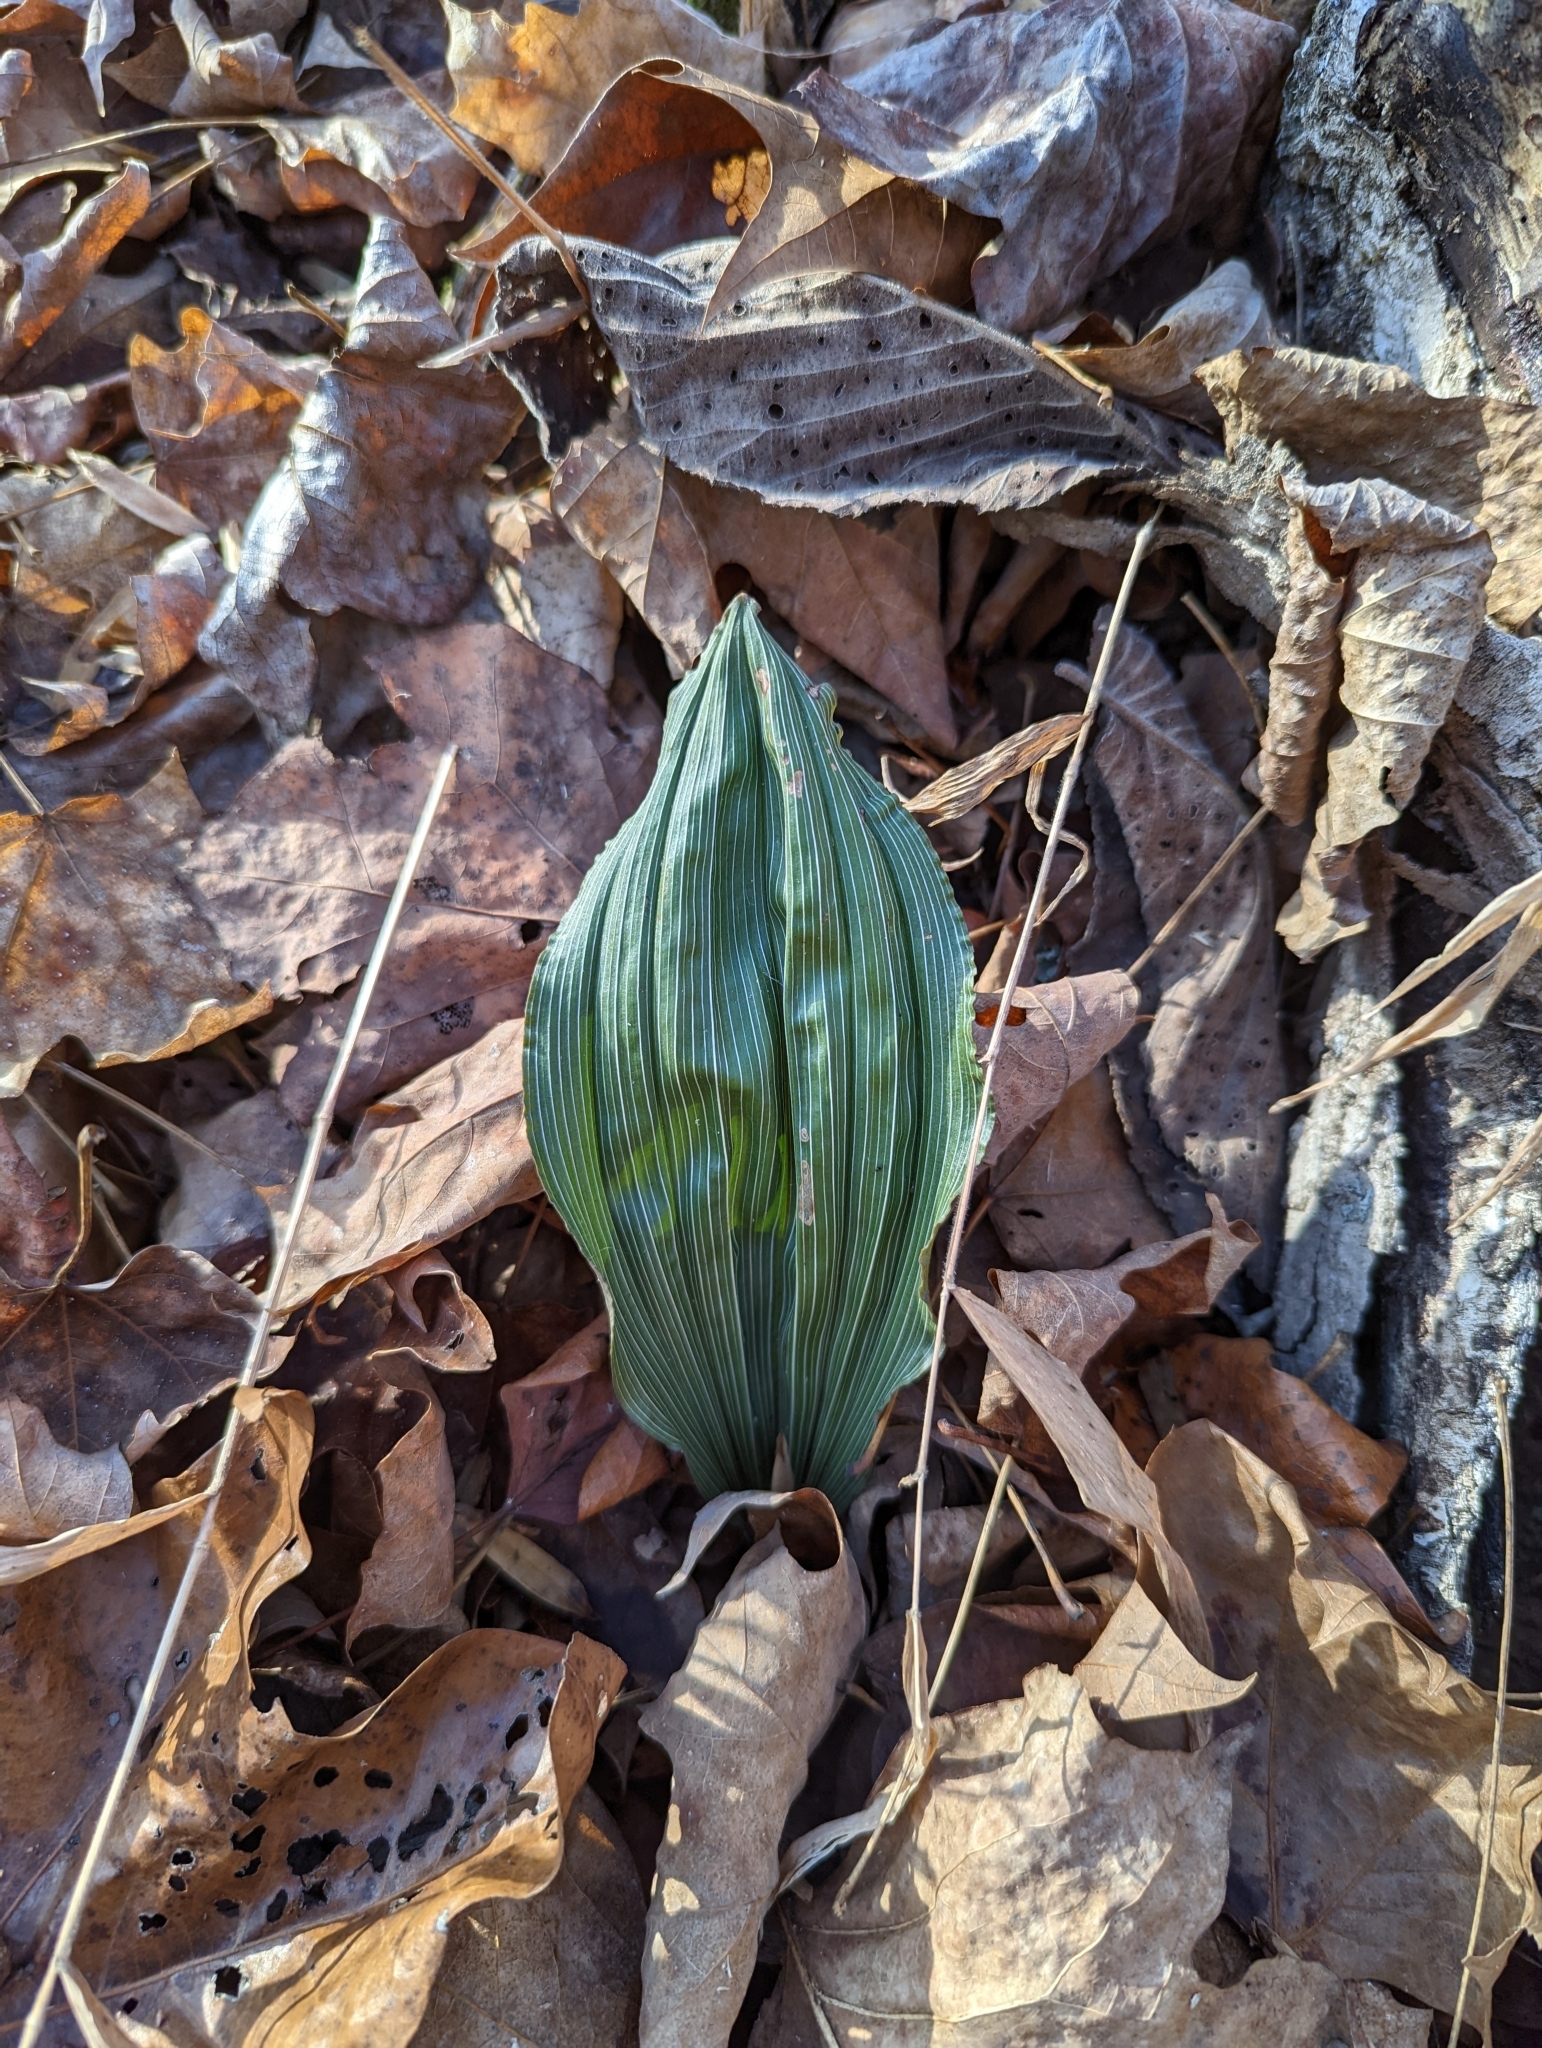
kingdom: Plantae
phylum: Tracheophyta
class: Liliopsida
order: Asparagales
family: Orchidaceae
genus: Aplectrum
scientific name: Aplectrum hyemale
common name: Adam-and-eve
